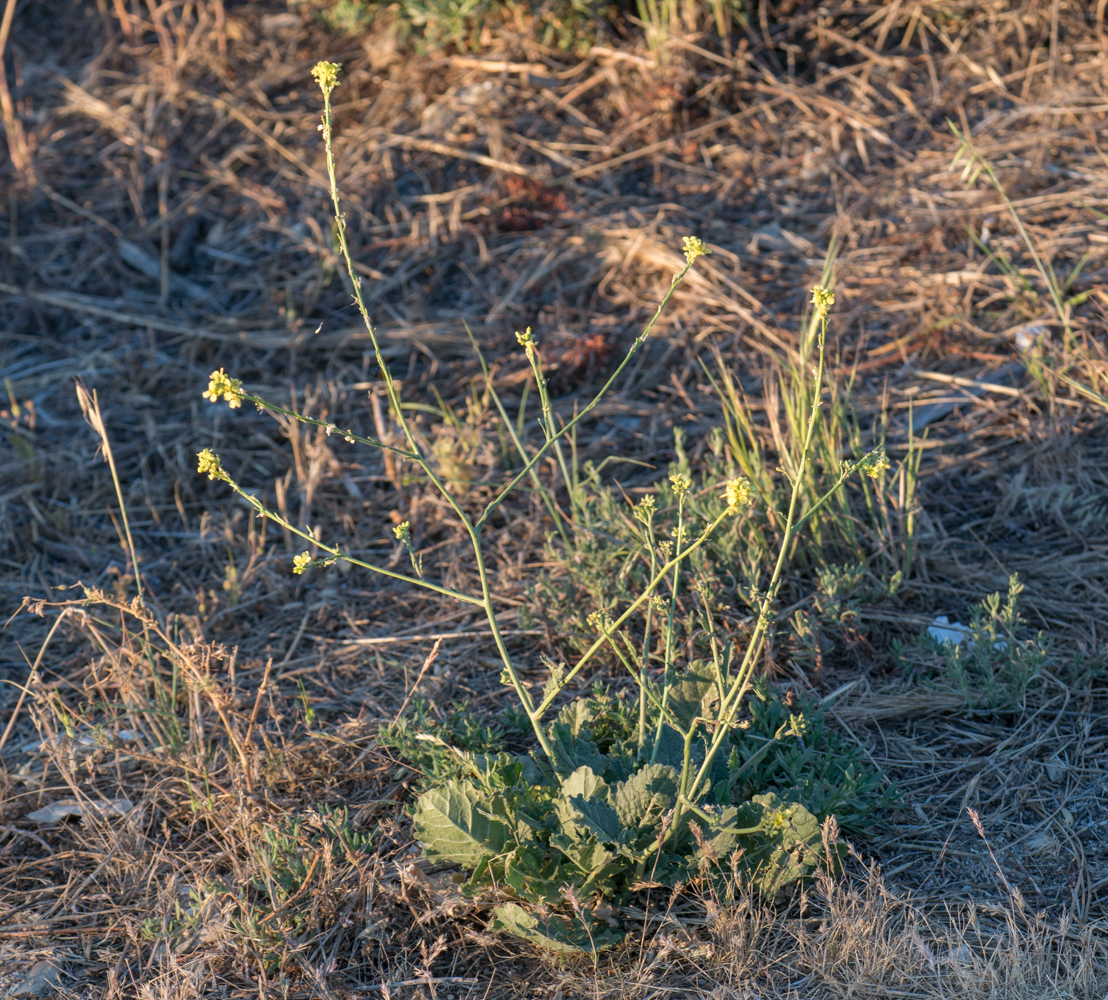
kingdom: Plantae
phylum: Tracheophyta
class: Magnoliopsida
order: Brassicales
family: Brassicaceae
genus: Hirschfeldia
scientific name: Hirschfeldia incana
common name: Hoary mustard
